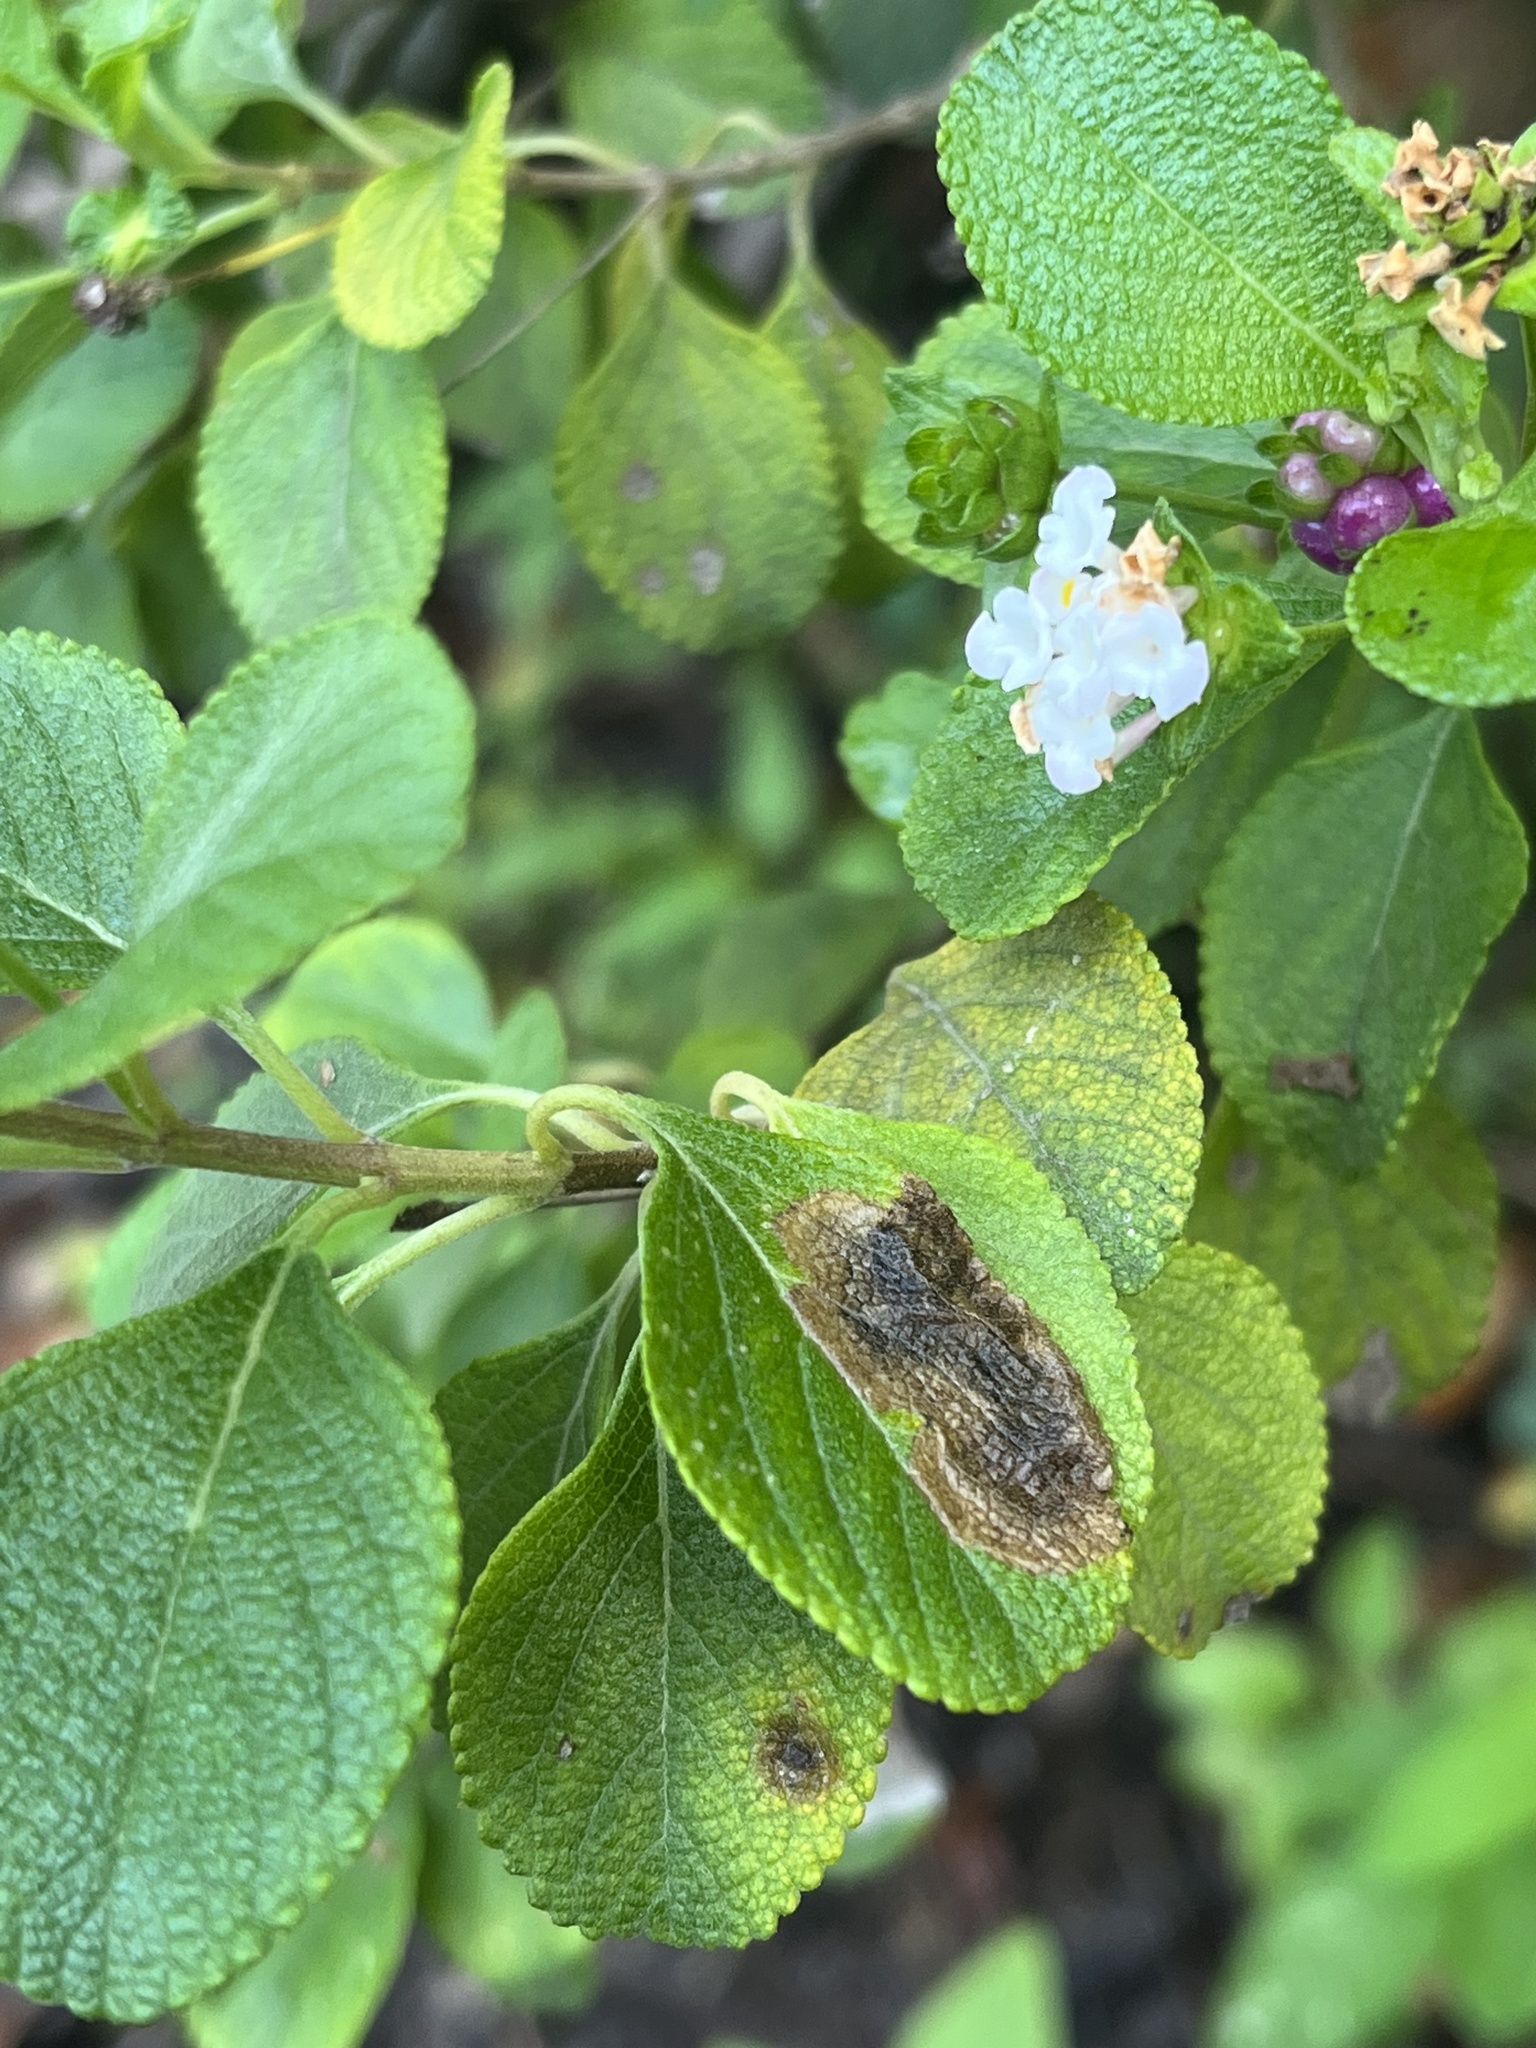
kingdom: Animalia
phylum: Arthropoda
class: Insecta
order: Diptera
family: Agromyzidae
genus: Calycomyza
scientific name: Calycomyza lantanae
